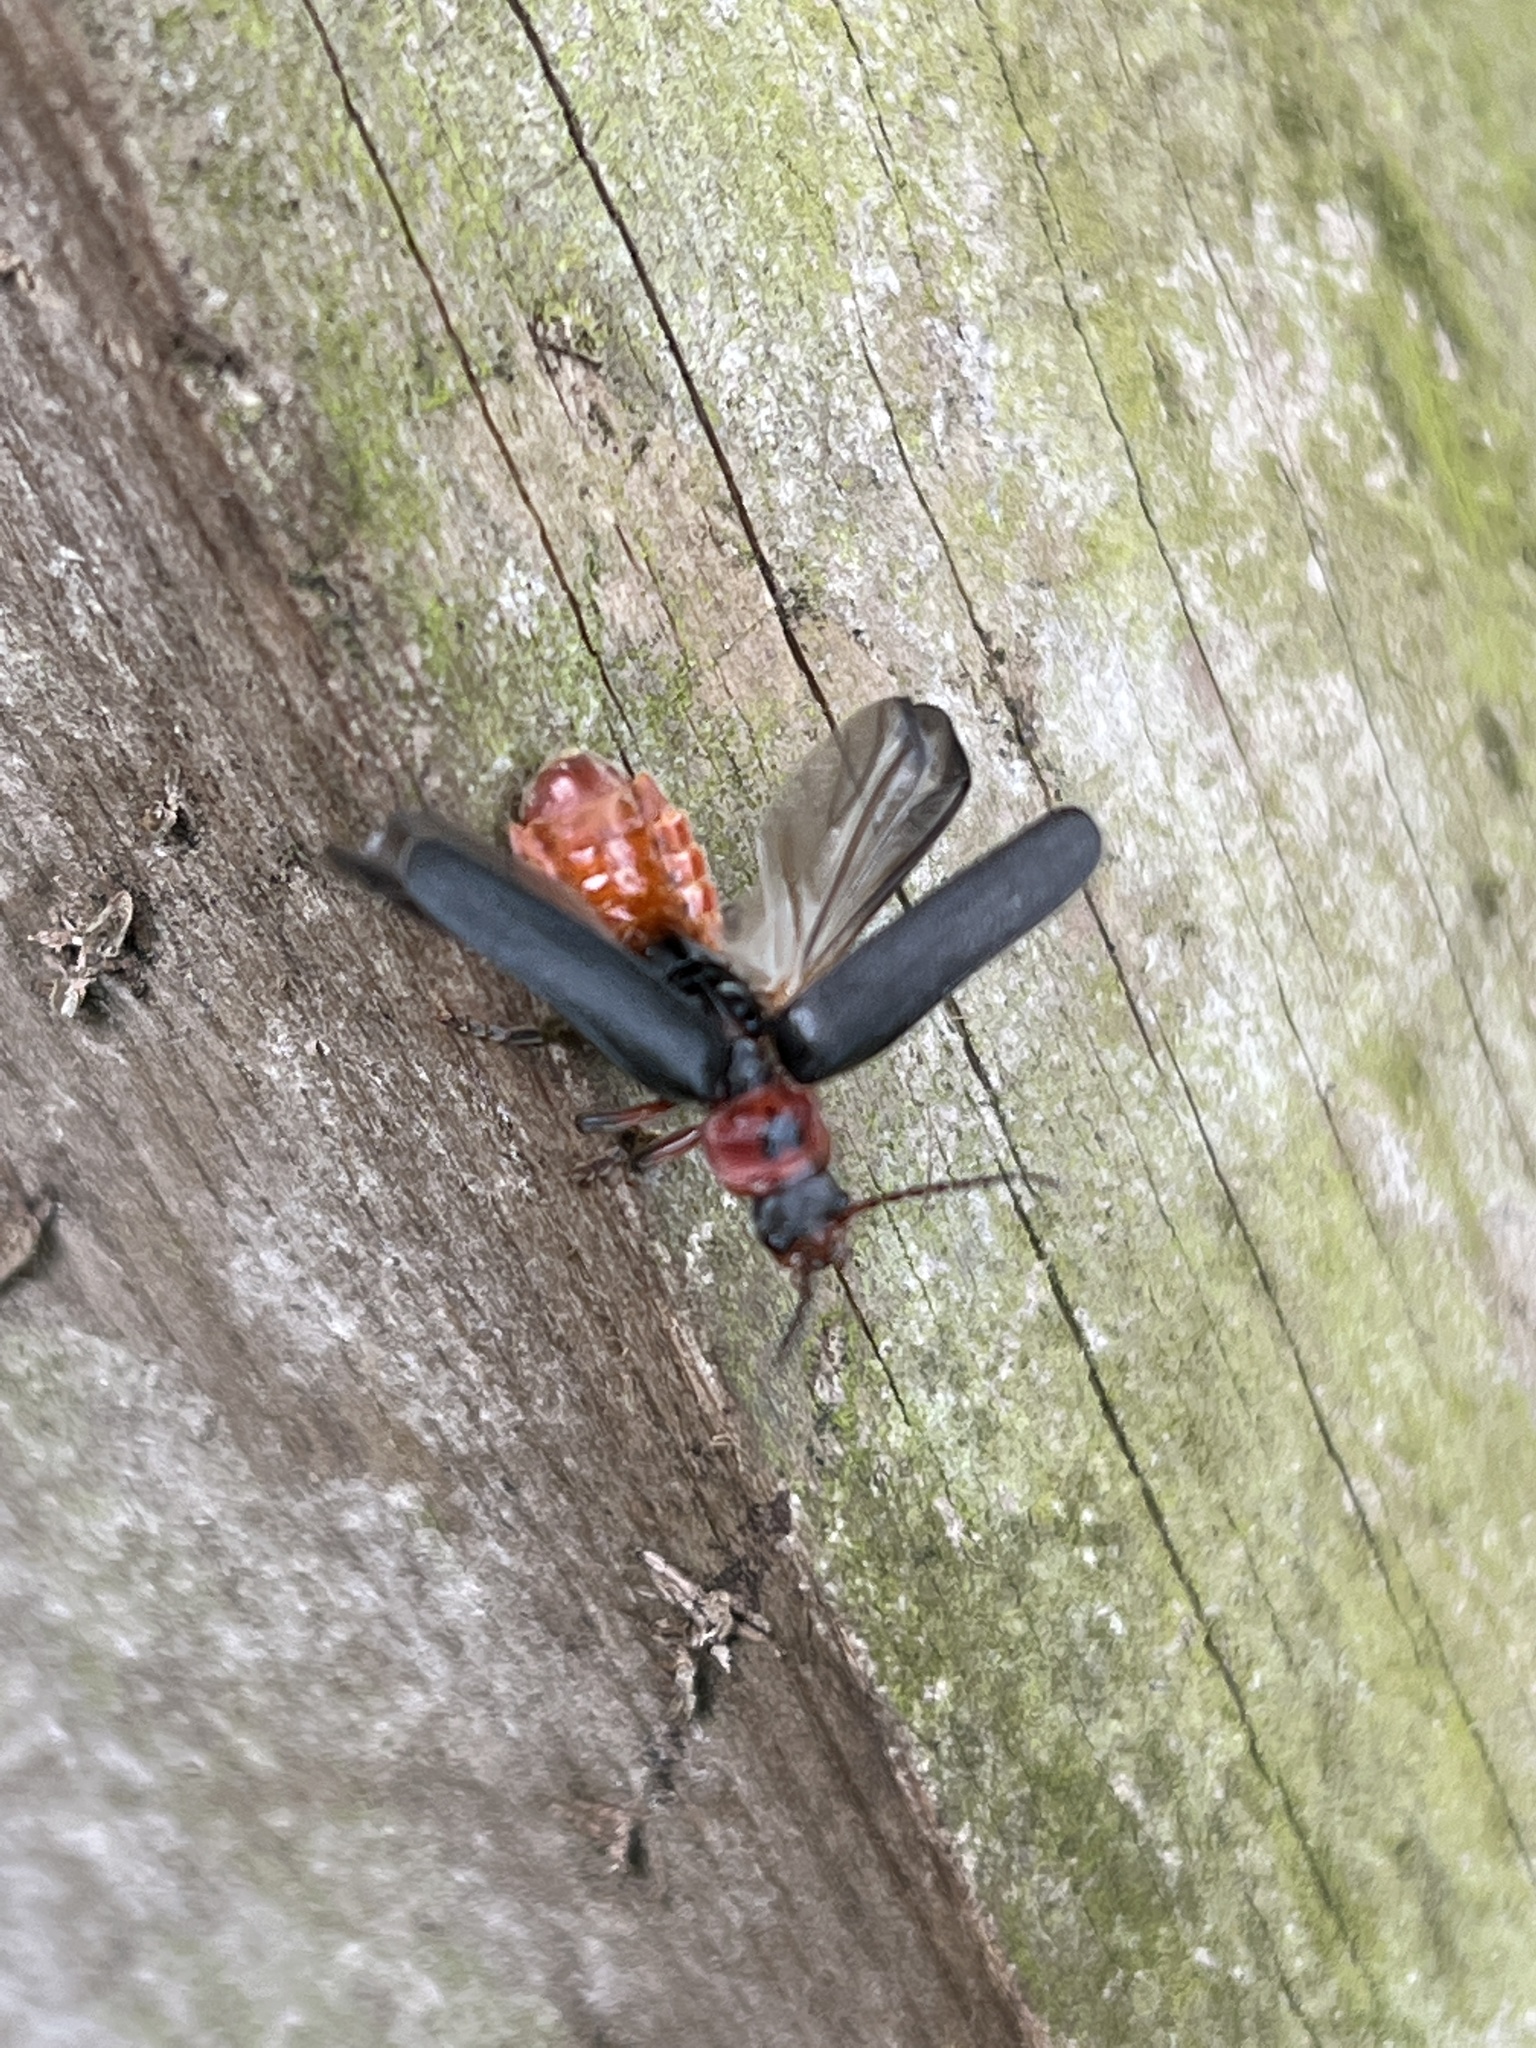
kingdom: Animalia
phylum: Arthropoda
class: Insecta
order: Coleoptera
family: Cantharidae
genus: Cantharis
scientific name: Cantharis rustica
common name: Soldier beetle
